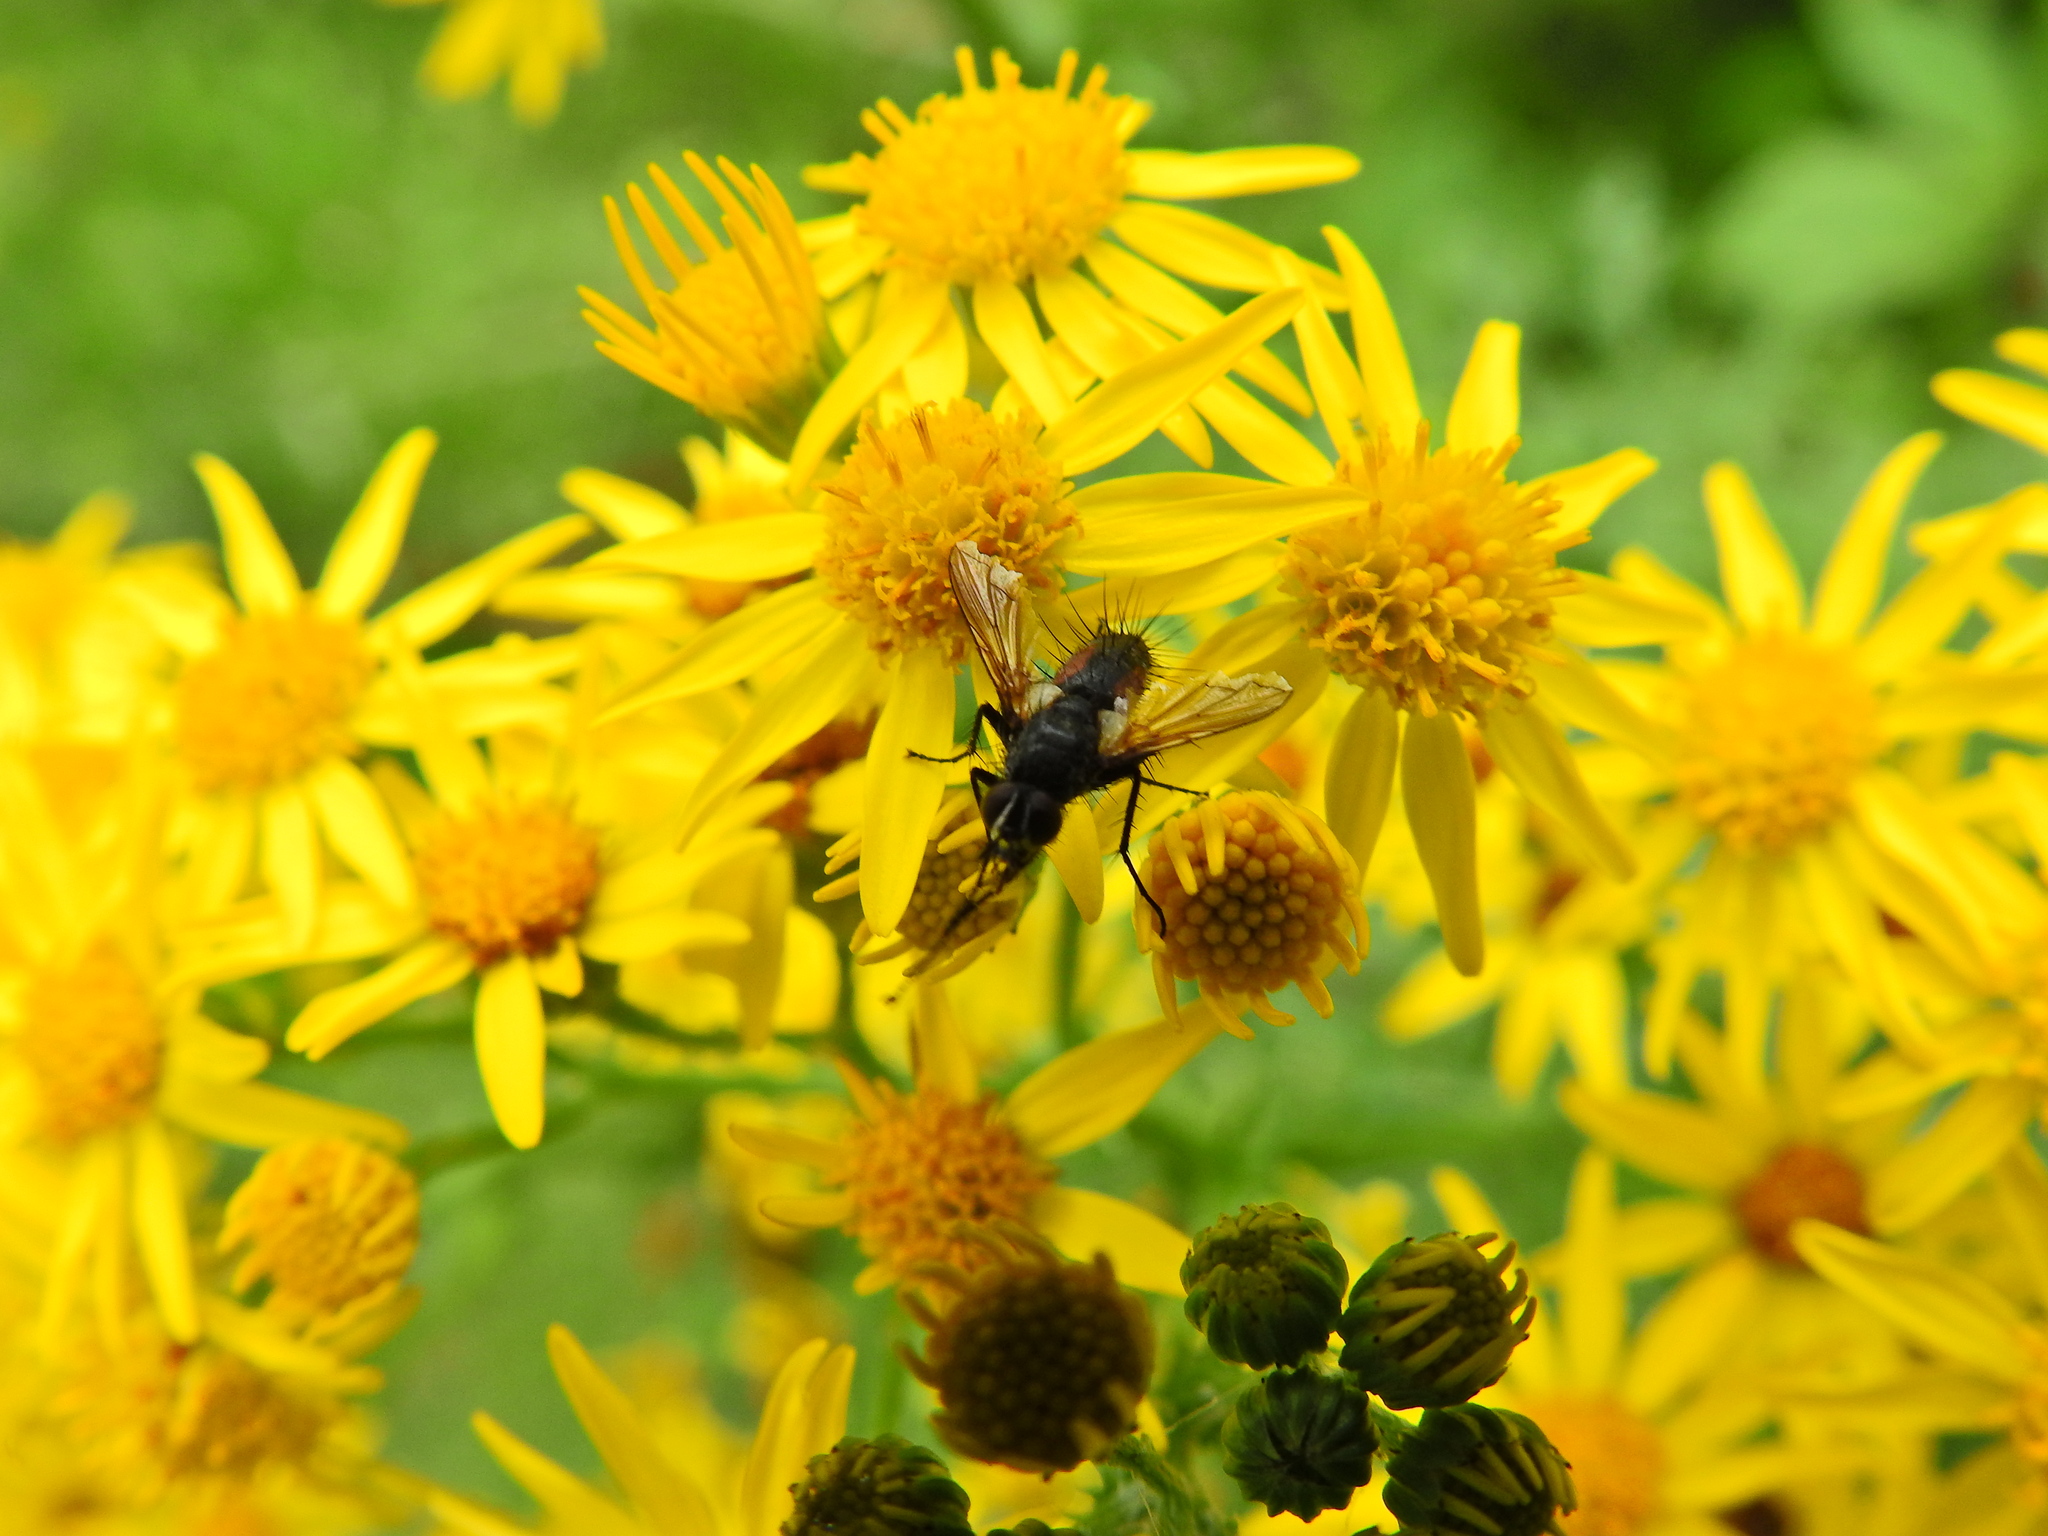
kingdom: Animalia
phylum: Arthropoda
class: Insecta
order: Diptera
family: Tachinidae
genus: Eriothrix
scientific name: Eriothrix rufomaculatus
